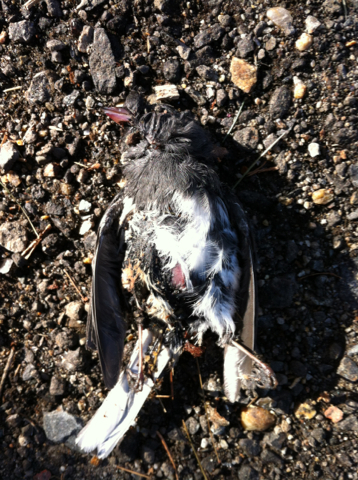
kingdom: Animalia
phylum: Chordata
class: Aves
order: Passeriformes
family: Passerellidae
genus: Junco
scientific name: Junco hyemalis
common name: Dark-eyed junco
